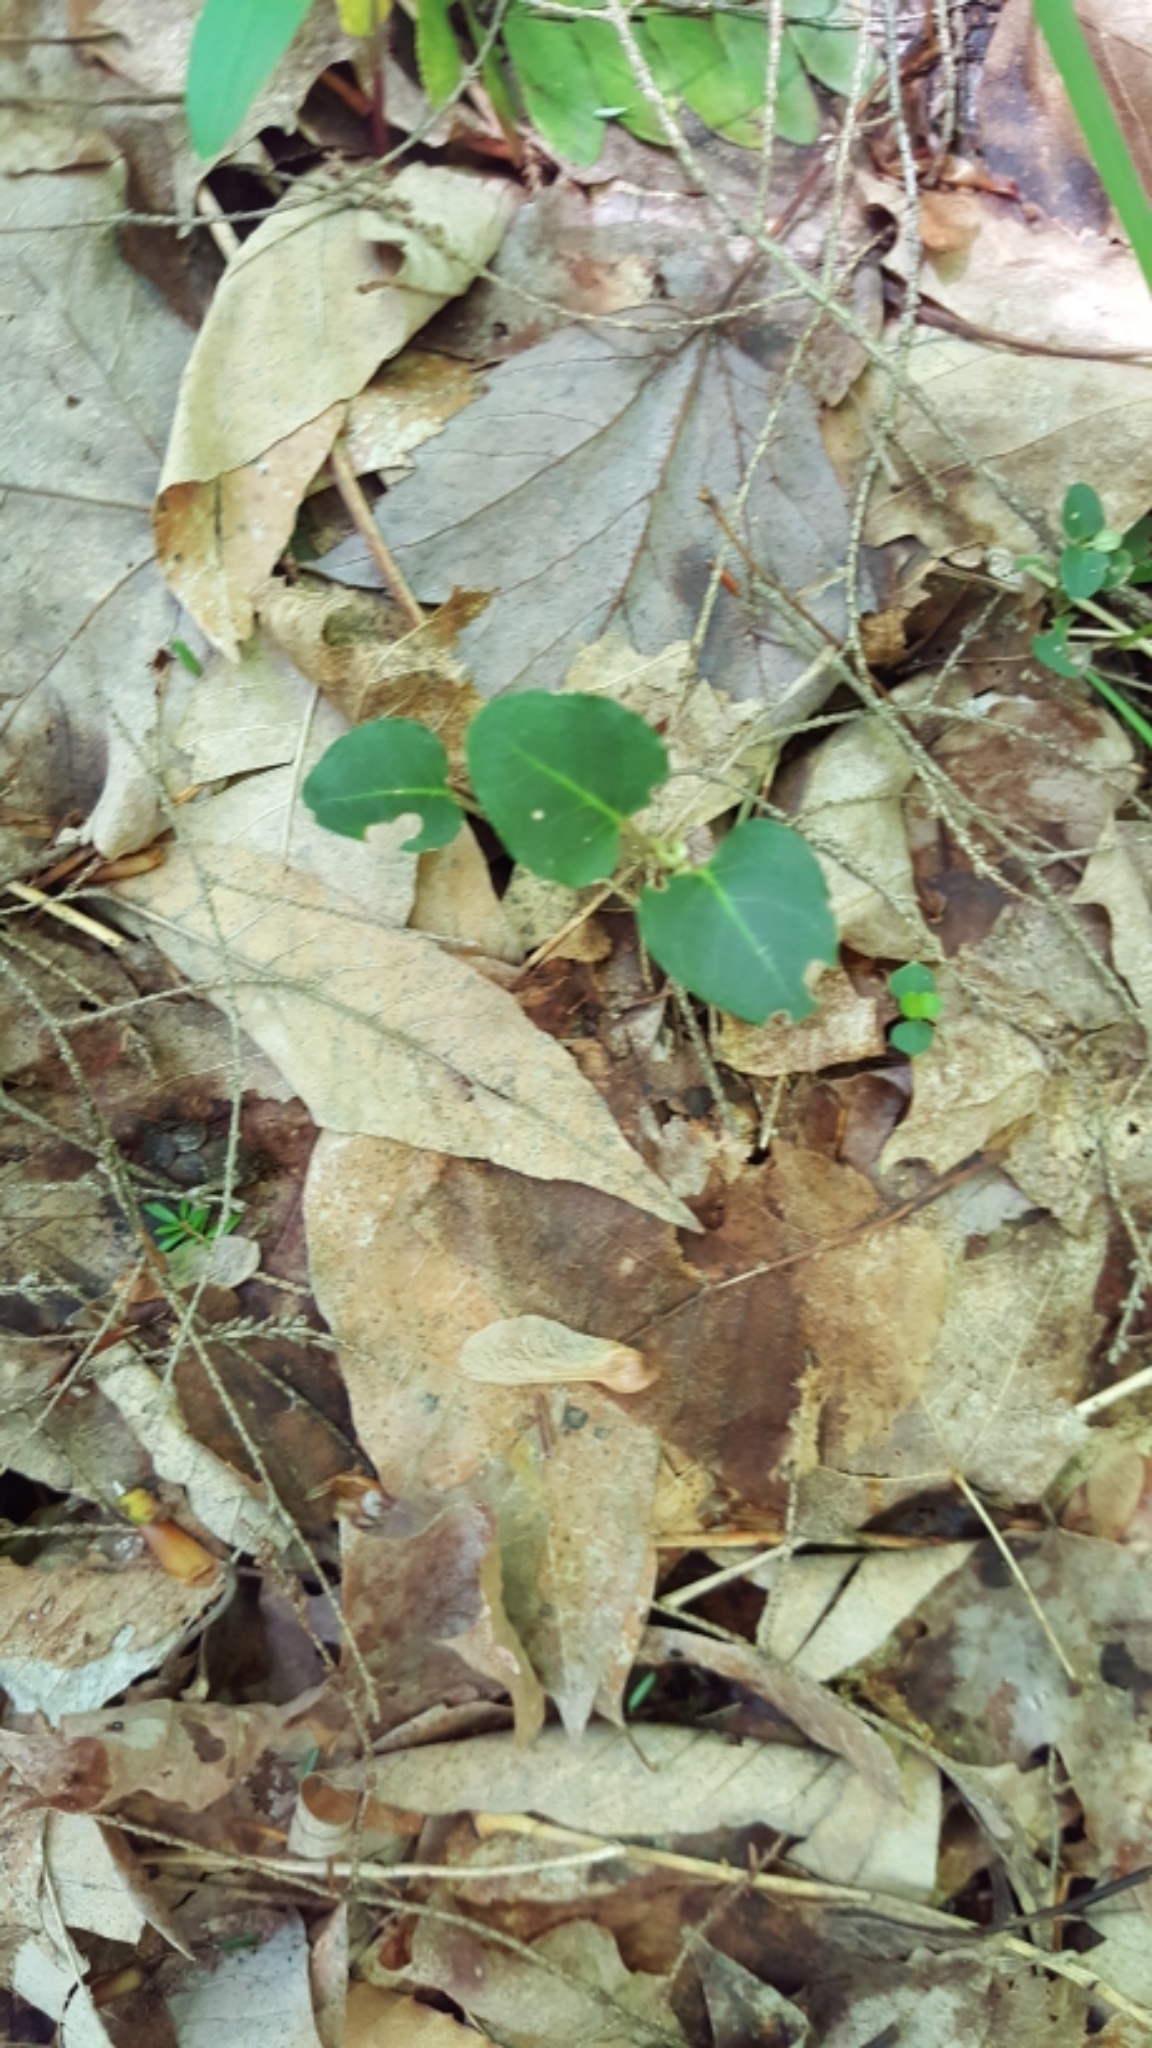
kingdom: Plantae
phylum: Tracheophyta
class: Magnoliopsida
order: Gentianales
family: Rubiaceae
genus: Mitchella
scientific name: Mitchella repens
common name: Partridge-berry
